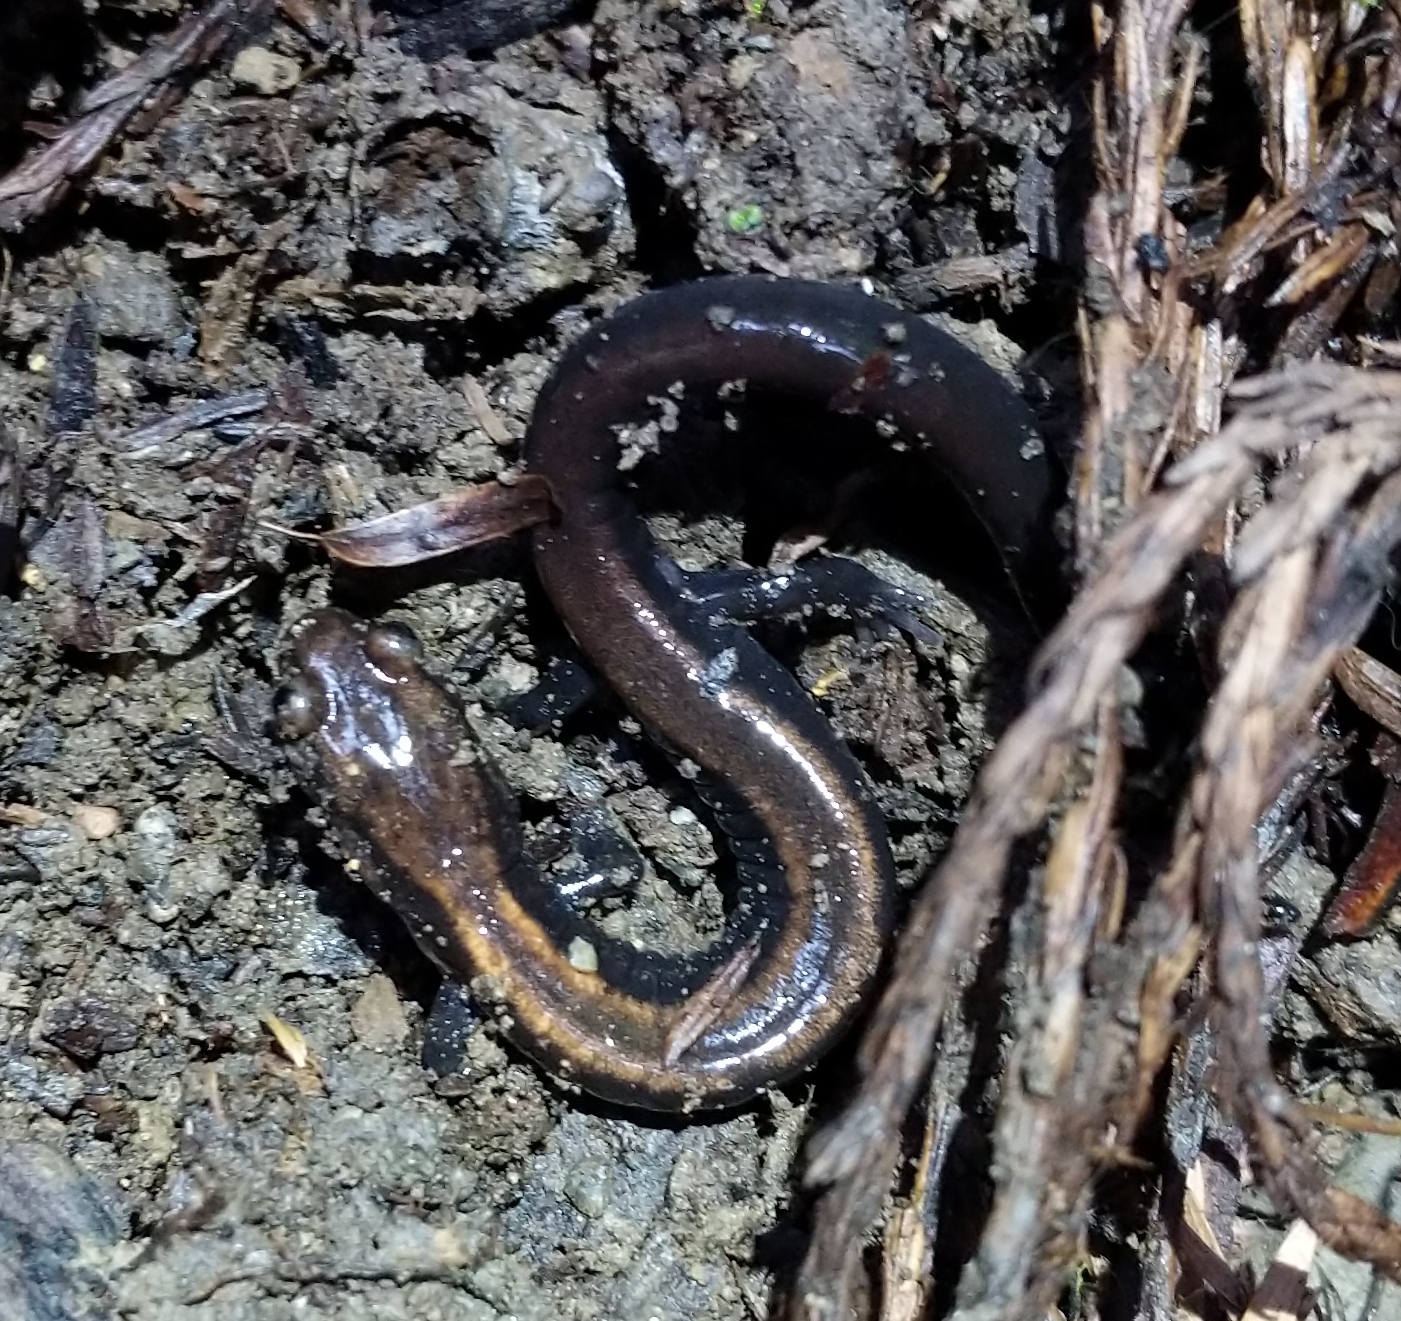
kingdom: Animalia
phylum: Chordata
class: Amphibia
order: Caudata
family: Plethodontidae
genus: Plethodon
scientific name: Plethodon elongatus
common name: Del norte salamander
